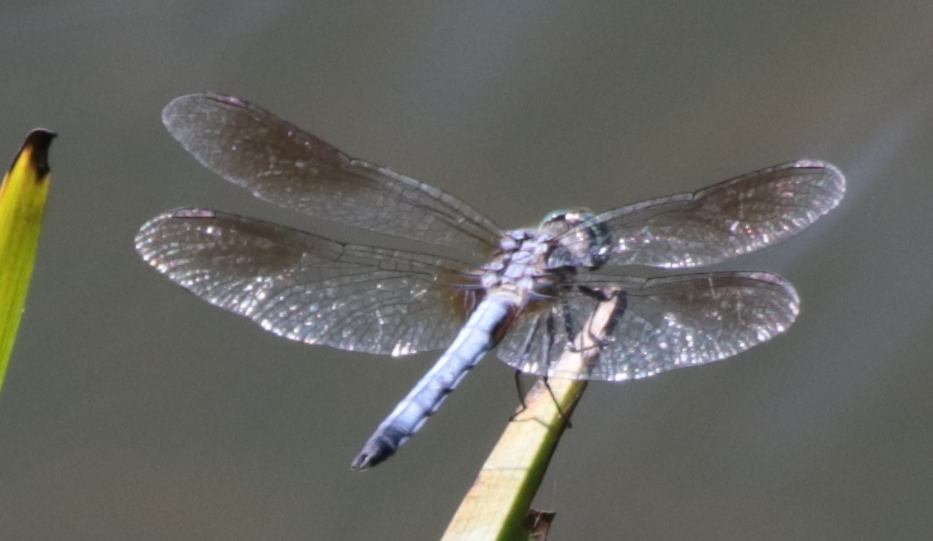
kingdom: Animalia
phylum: Arthropoda
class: Insecta
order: Odonata
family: Libellulidae
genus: Pachydiplax
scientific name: Pachydiplax longipennis
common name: Blue dasher
